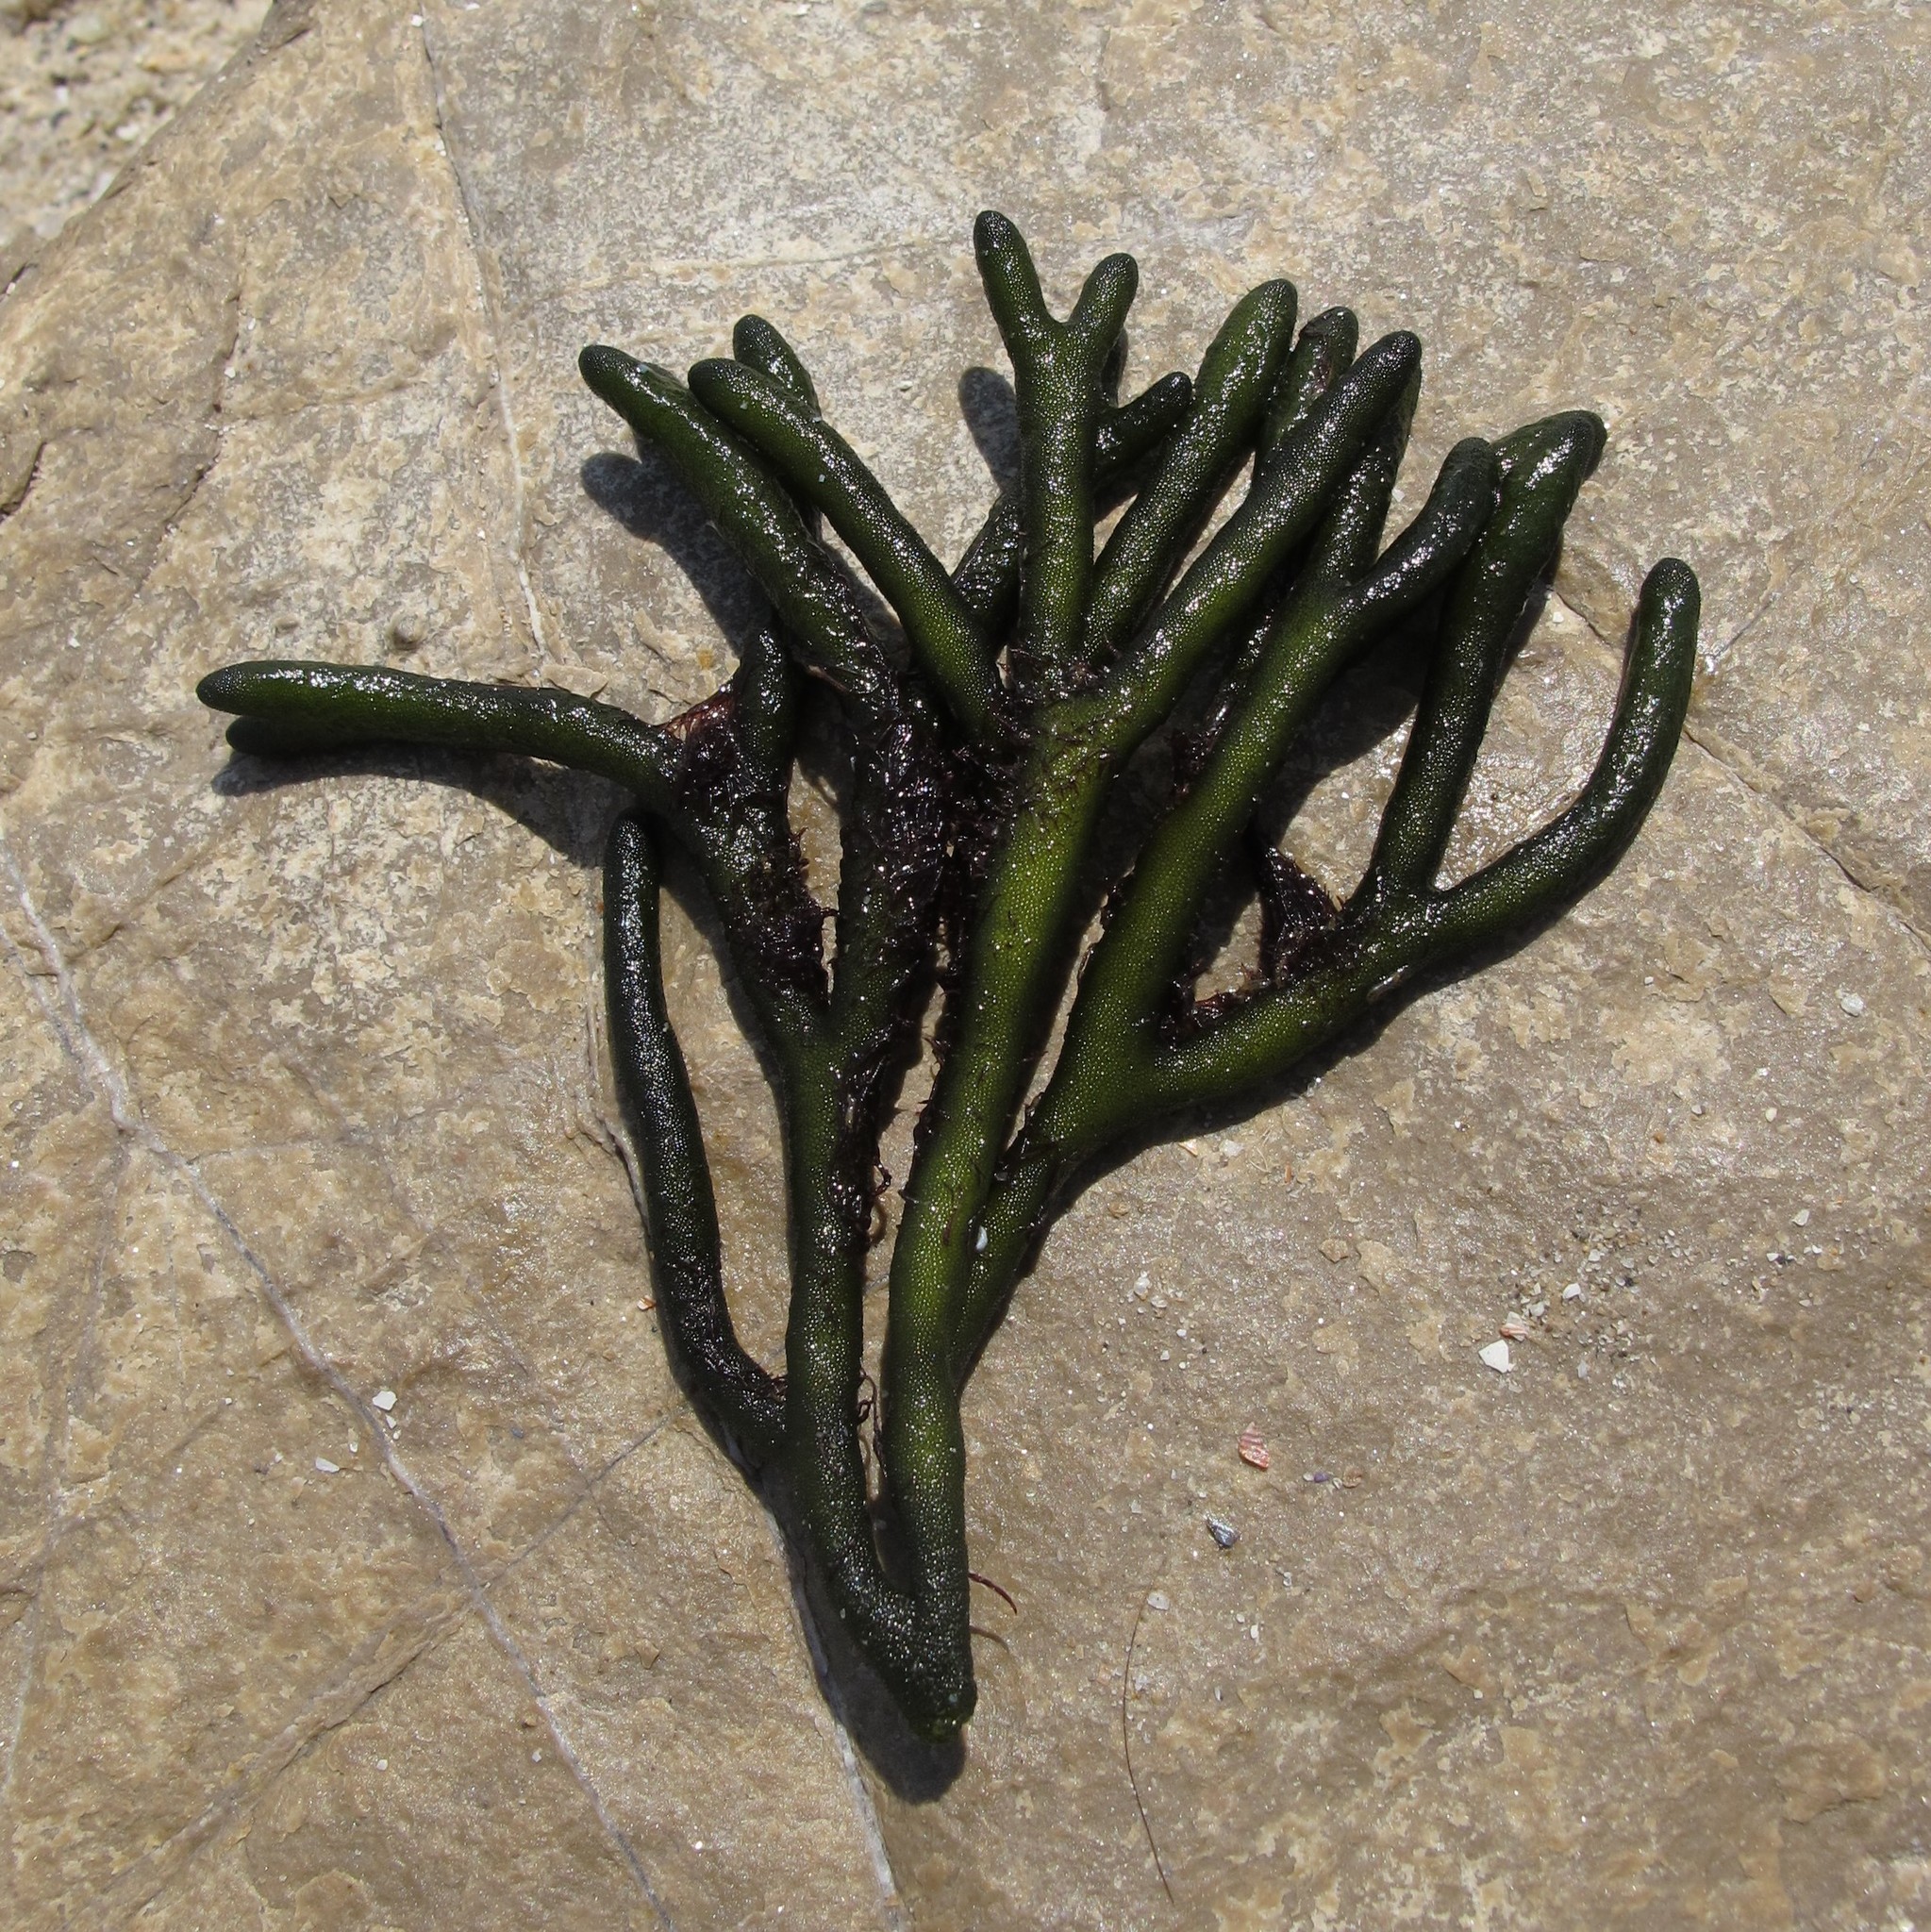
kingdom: Plantae
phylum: Chlorophyta
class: Ulvophyceae
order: Bryopsidales
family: Codiaceae
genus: Codium
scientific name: Codium fragile
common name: Dead man's fingers
